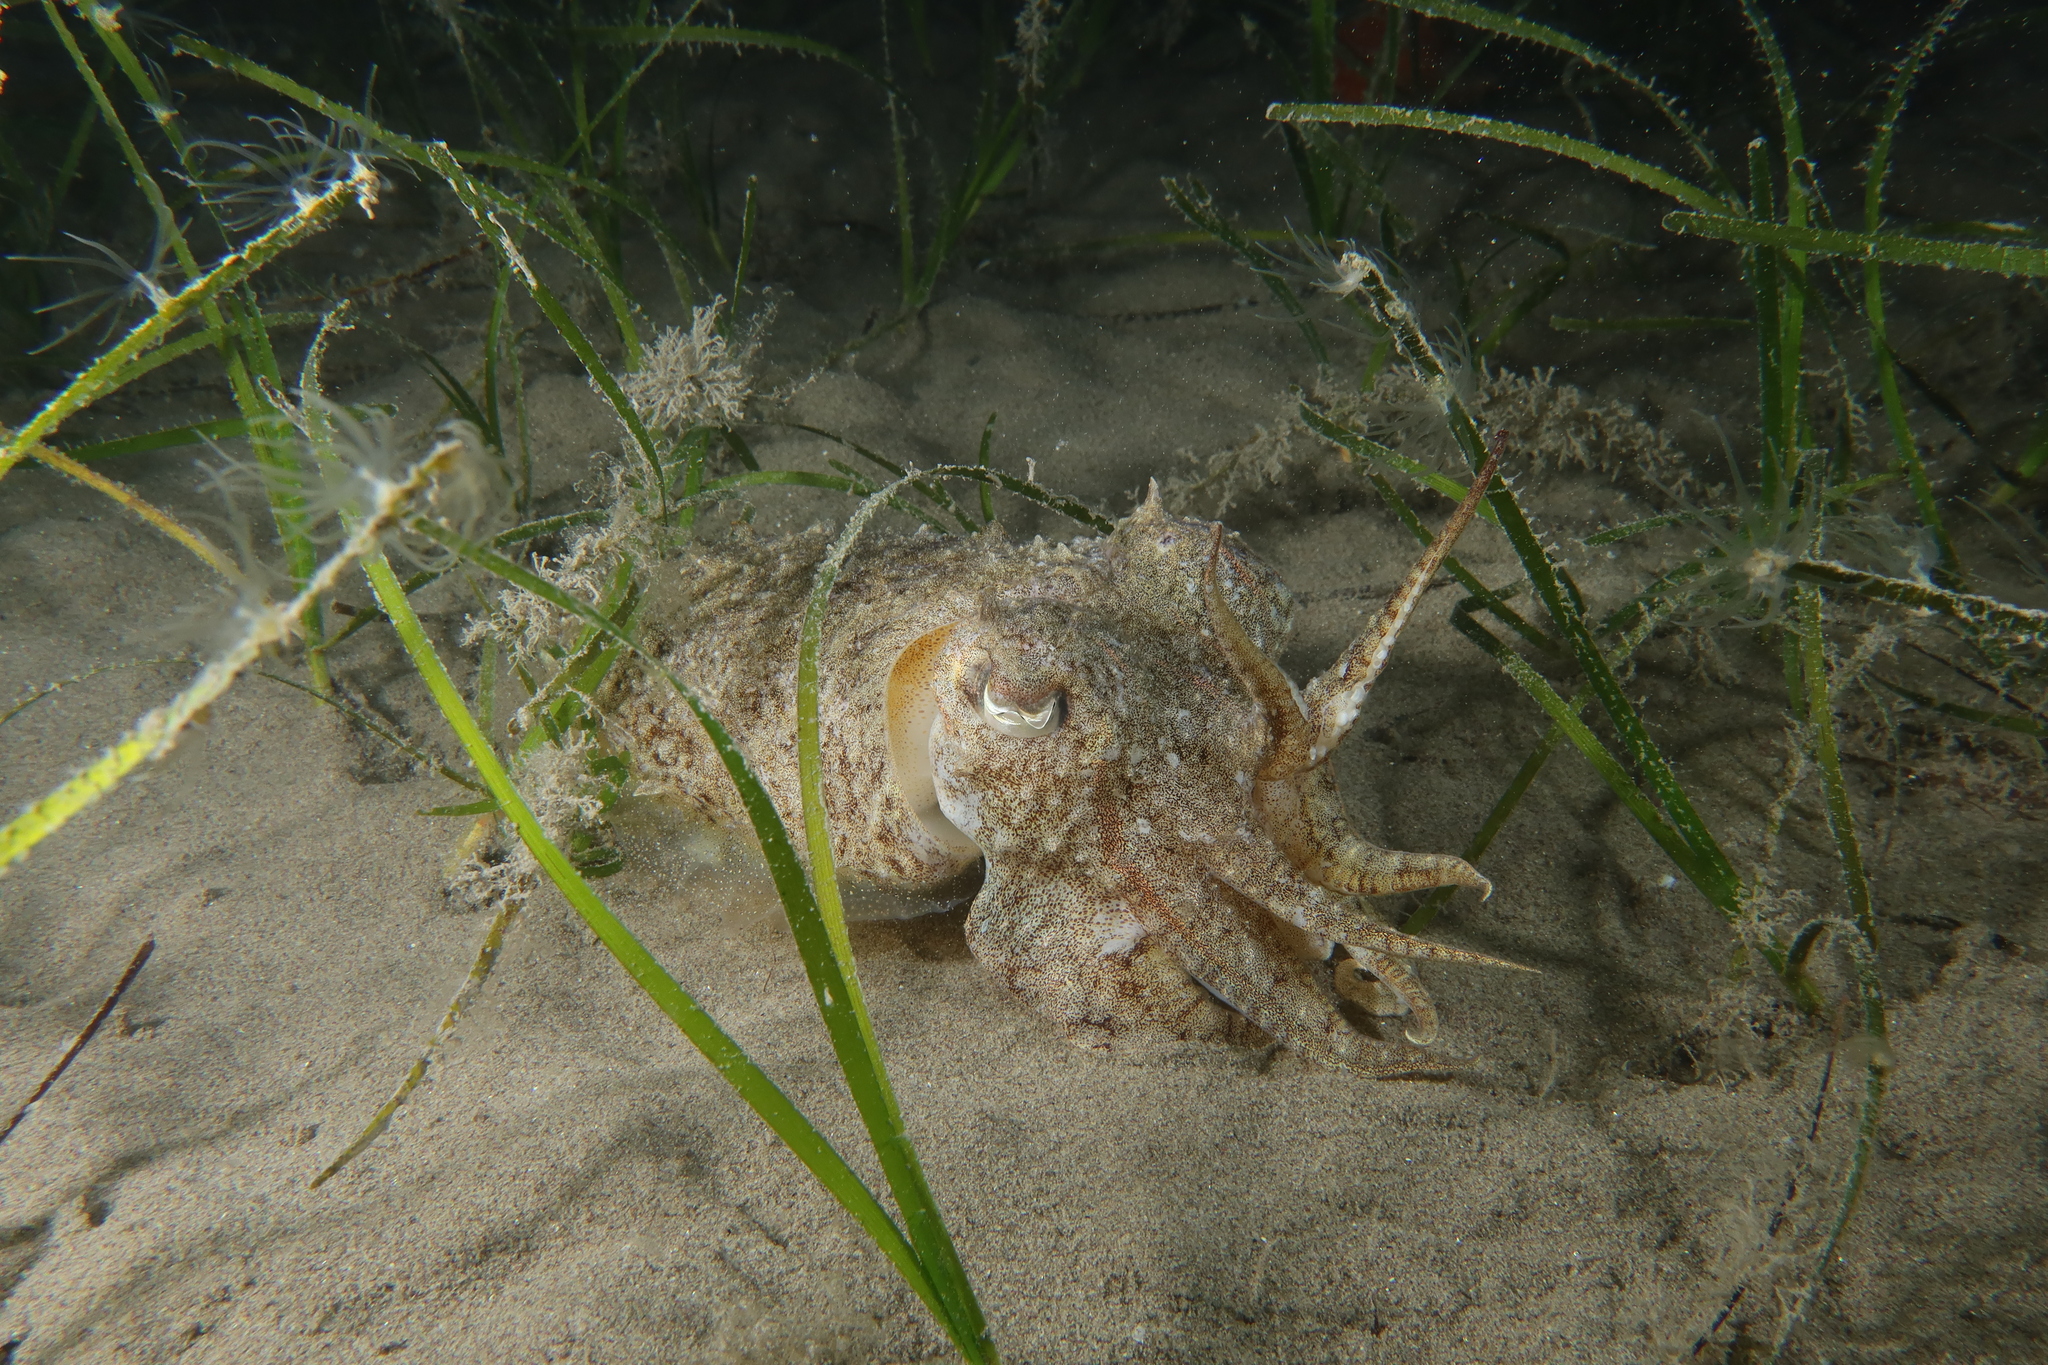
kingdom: Animalia
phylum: Mollusca
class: Cephalopoda
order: Sepiida
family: Sepiidae
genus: Sepia
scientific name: Sepia officinalis
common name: Common cuttlefish
